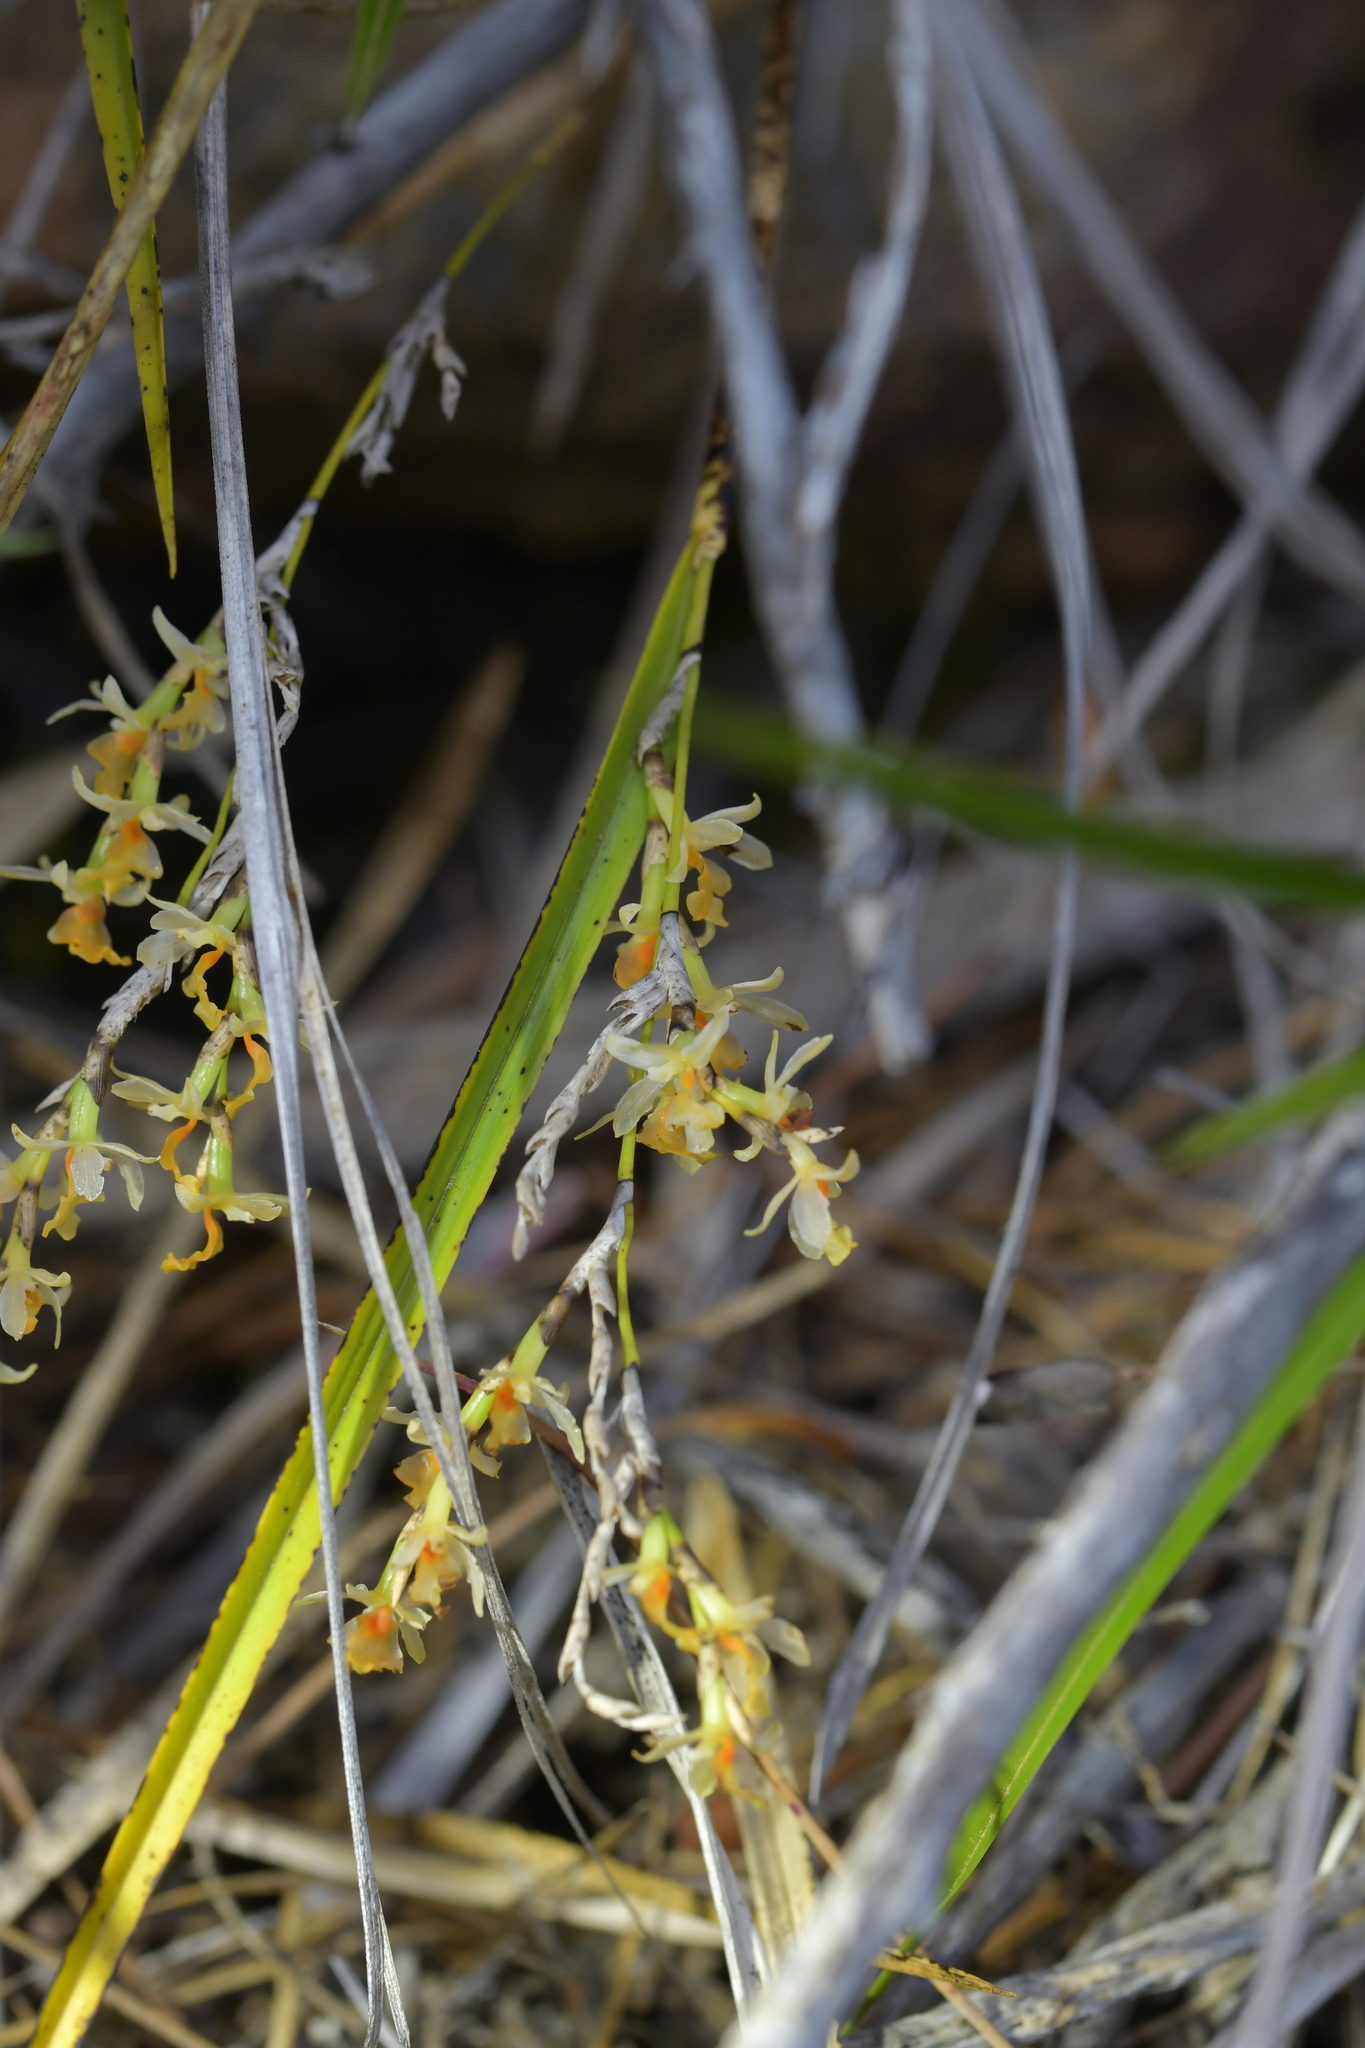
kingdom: Plantae
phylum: Tracheophyta
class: Liliopsida
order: Asparagales
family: Orchidaceae
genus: Earina
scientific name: Earina mucronata
